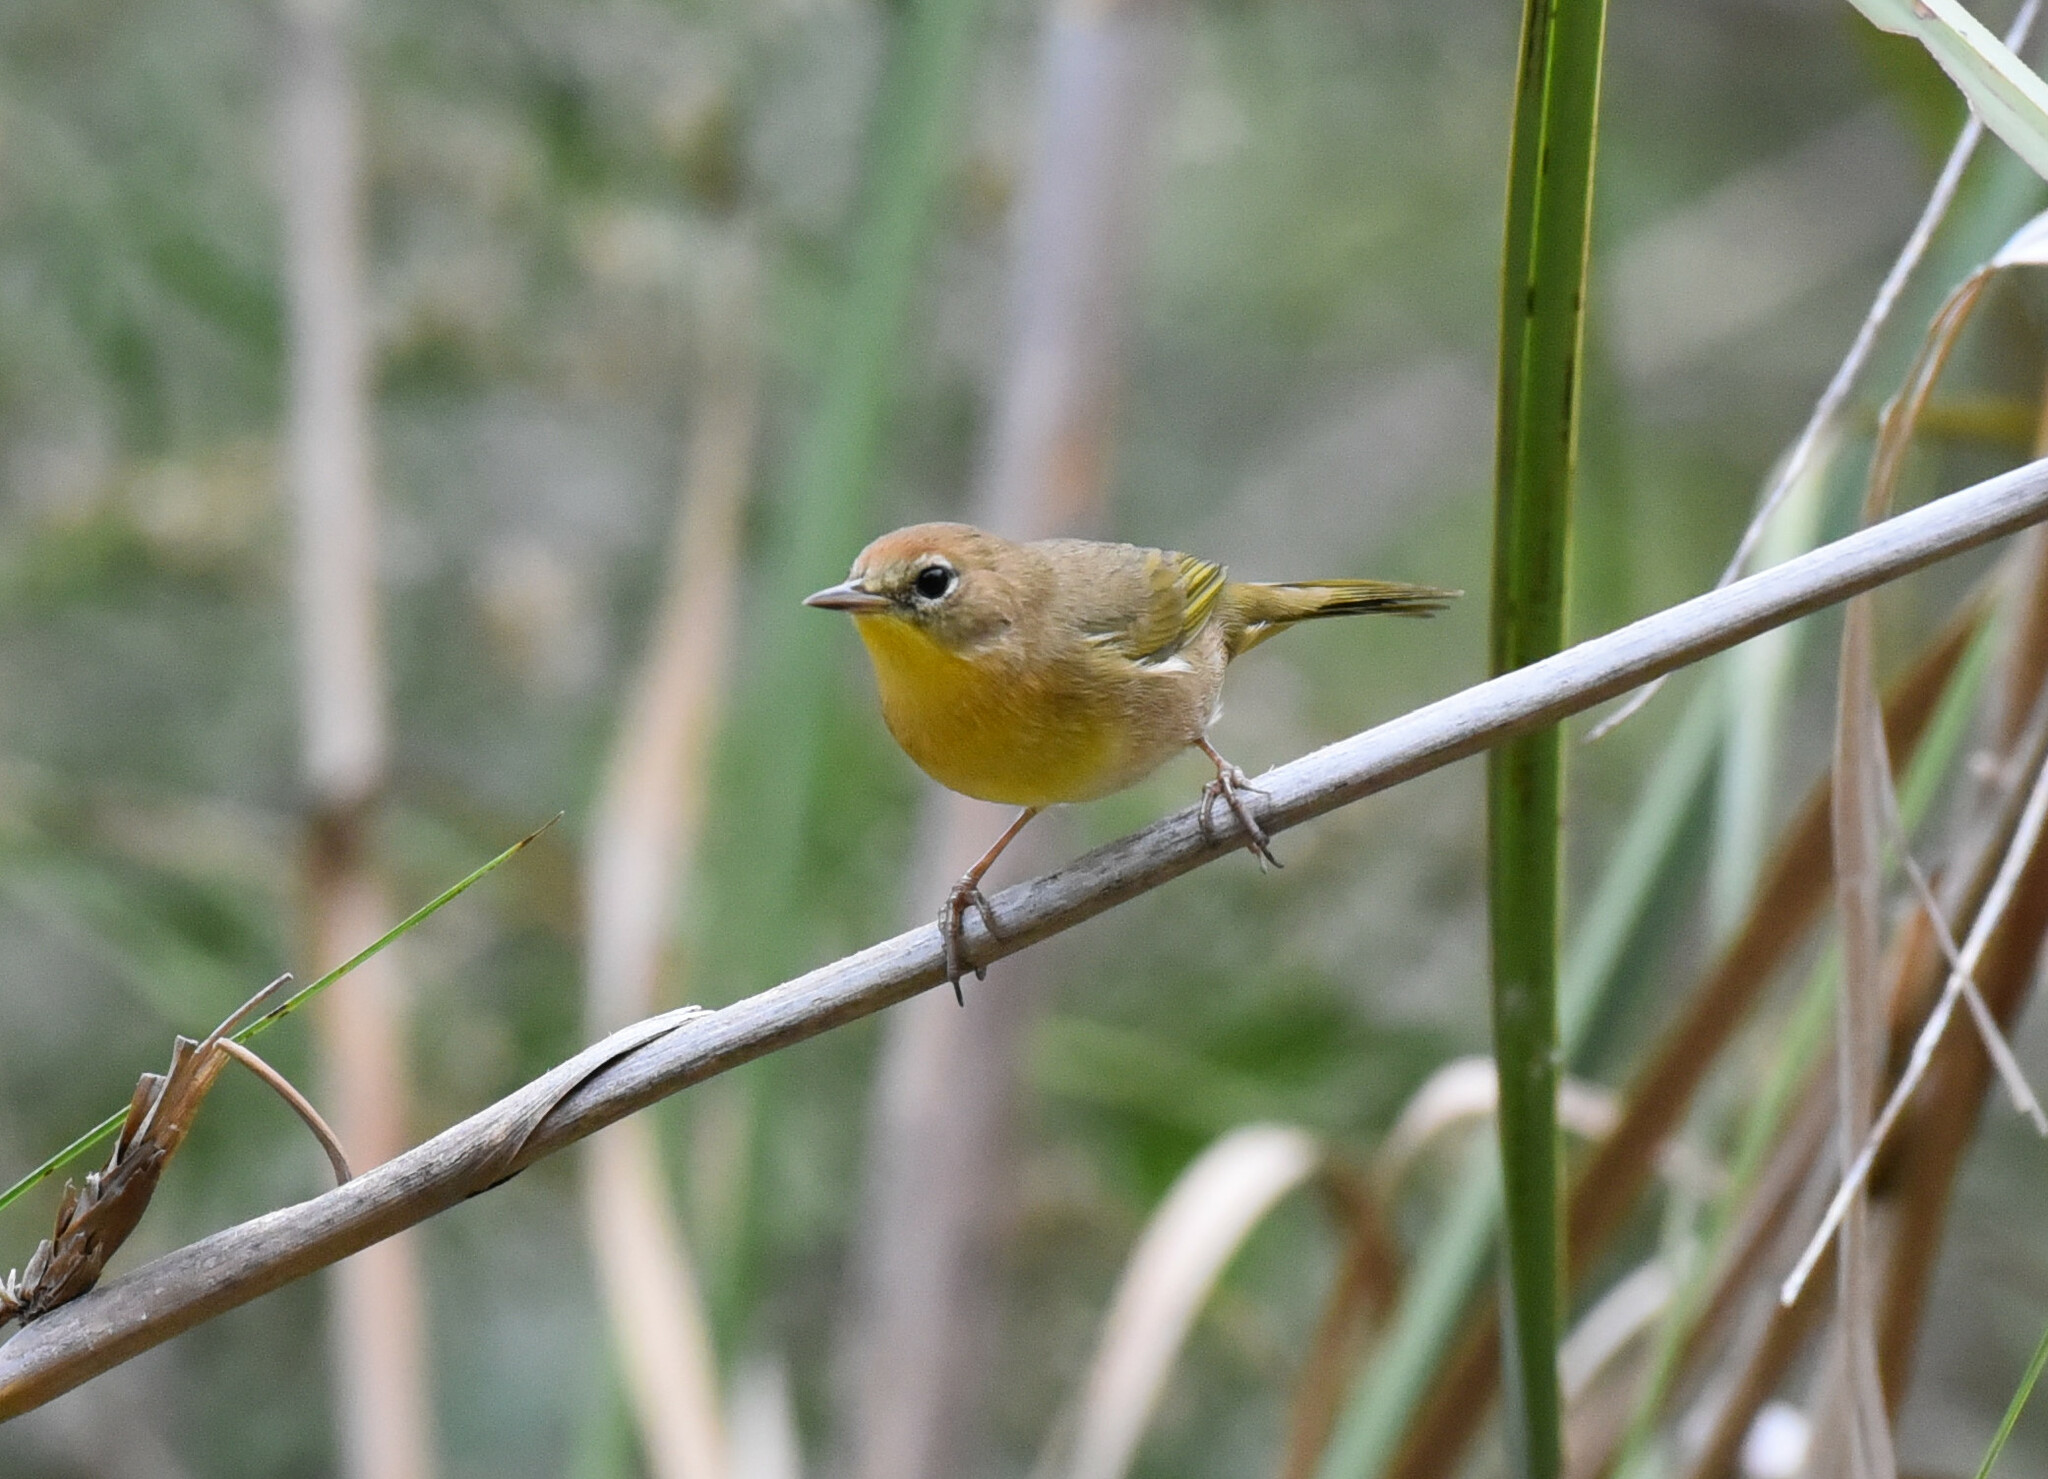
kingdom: Animalia
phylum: Chordata
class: Aves
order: Passeriformes
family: Parulidae
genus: Geothlypis
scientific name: Geothlypis trichas
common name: Common yellowthroat
